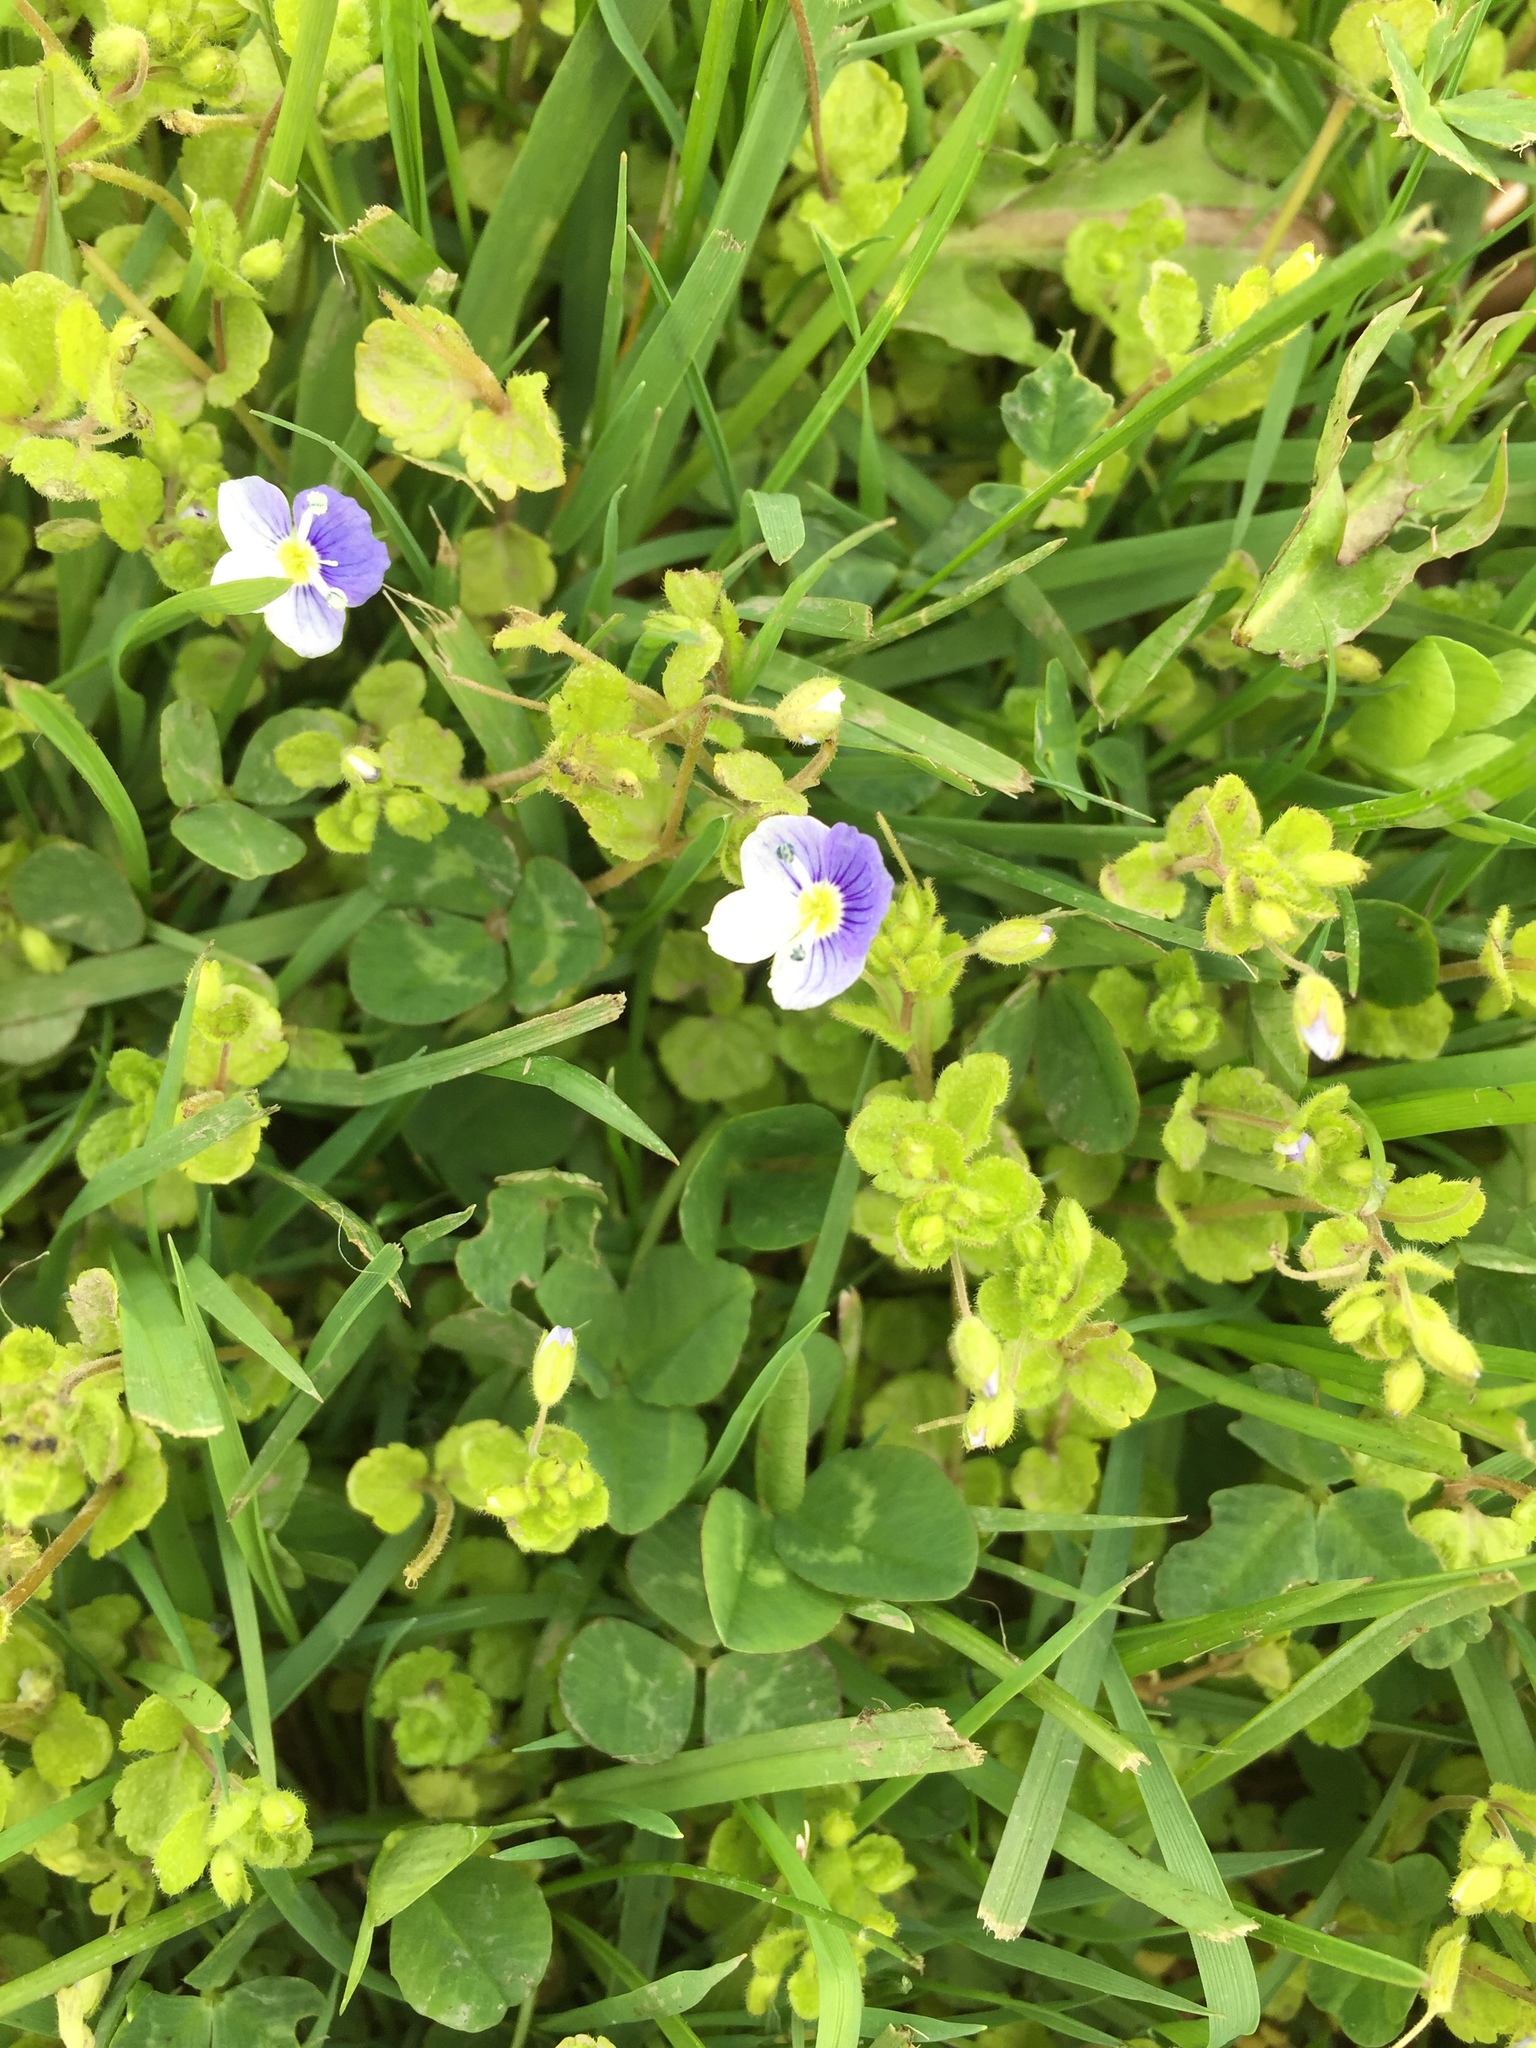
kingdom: Plantae
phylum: Tracheophyta
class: Magnoliopsida
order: Lamiales
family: Plantaginaceae
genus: Veronica
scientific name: Veronica filiformis
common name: Slender speedwell
